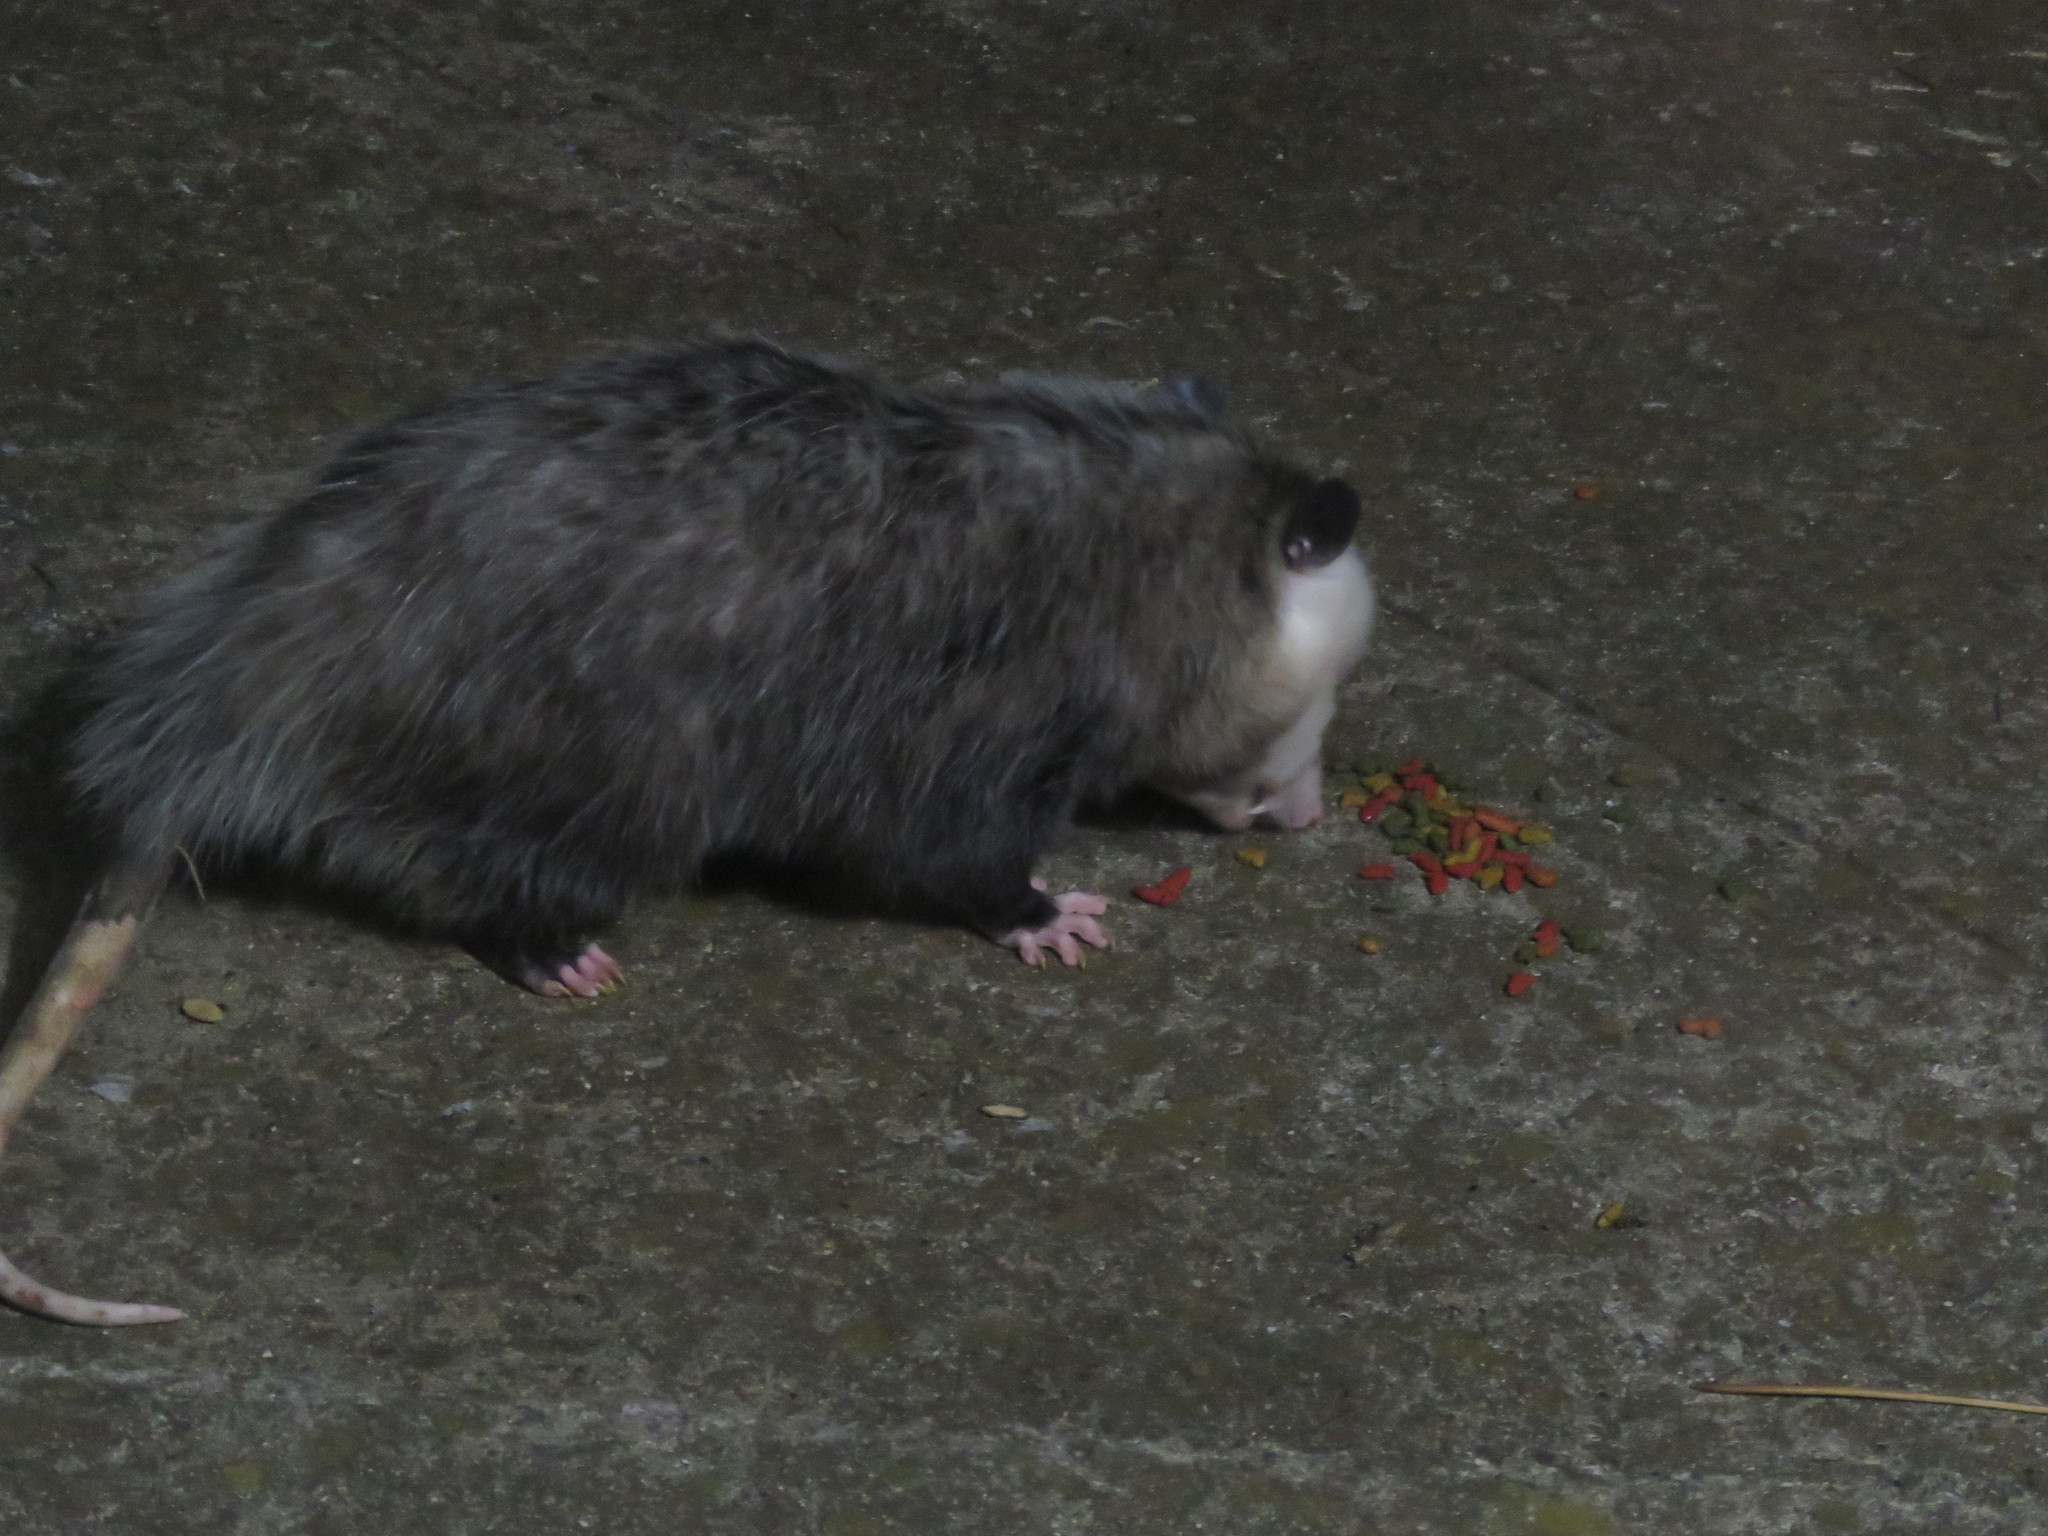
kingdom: Animalia
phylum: Chordata
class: Mammalia
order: Didelphimorphia
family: Didelphidae
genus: Didelphis
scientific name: Didelphis virginiana
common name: Virginia opossum
